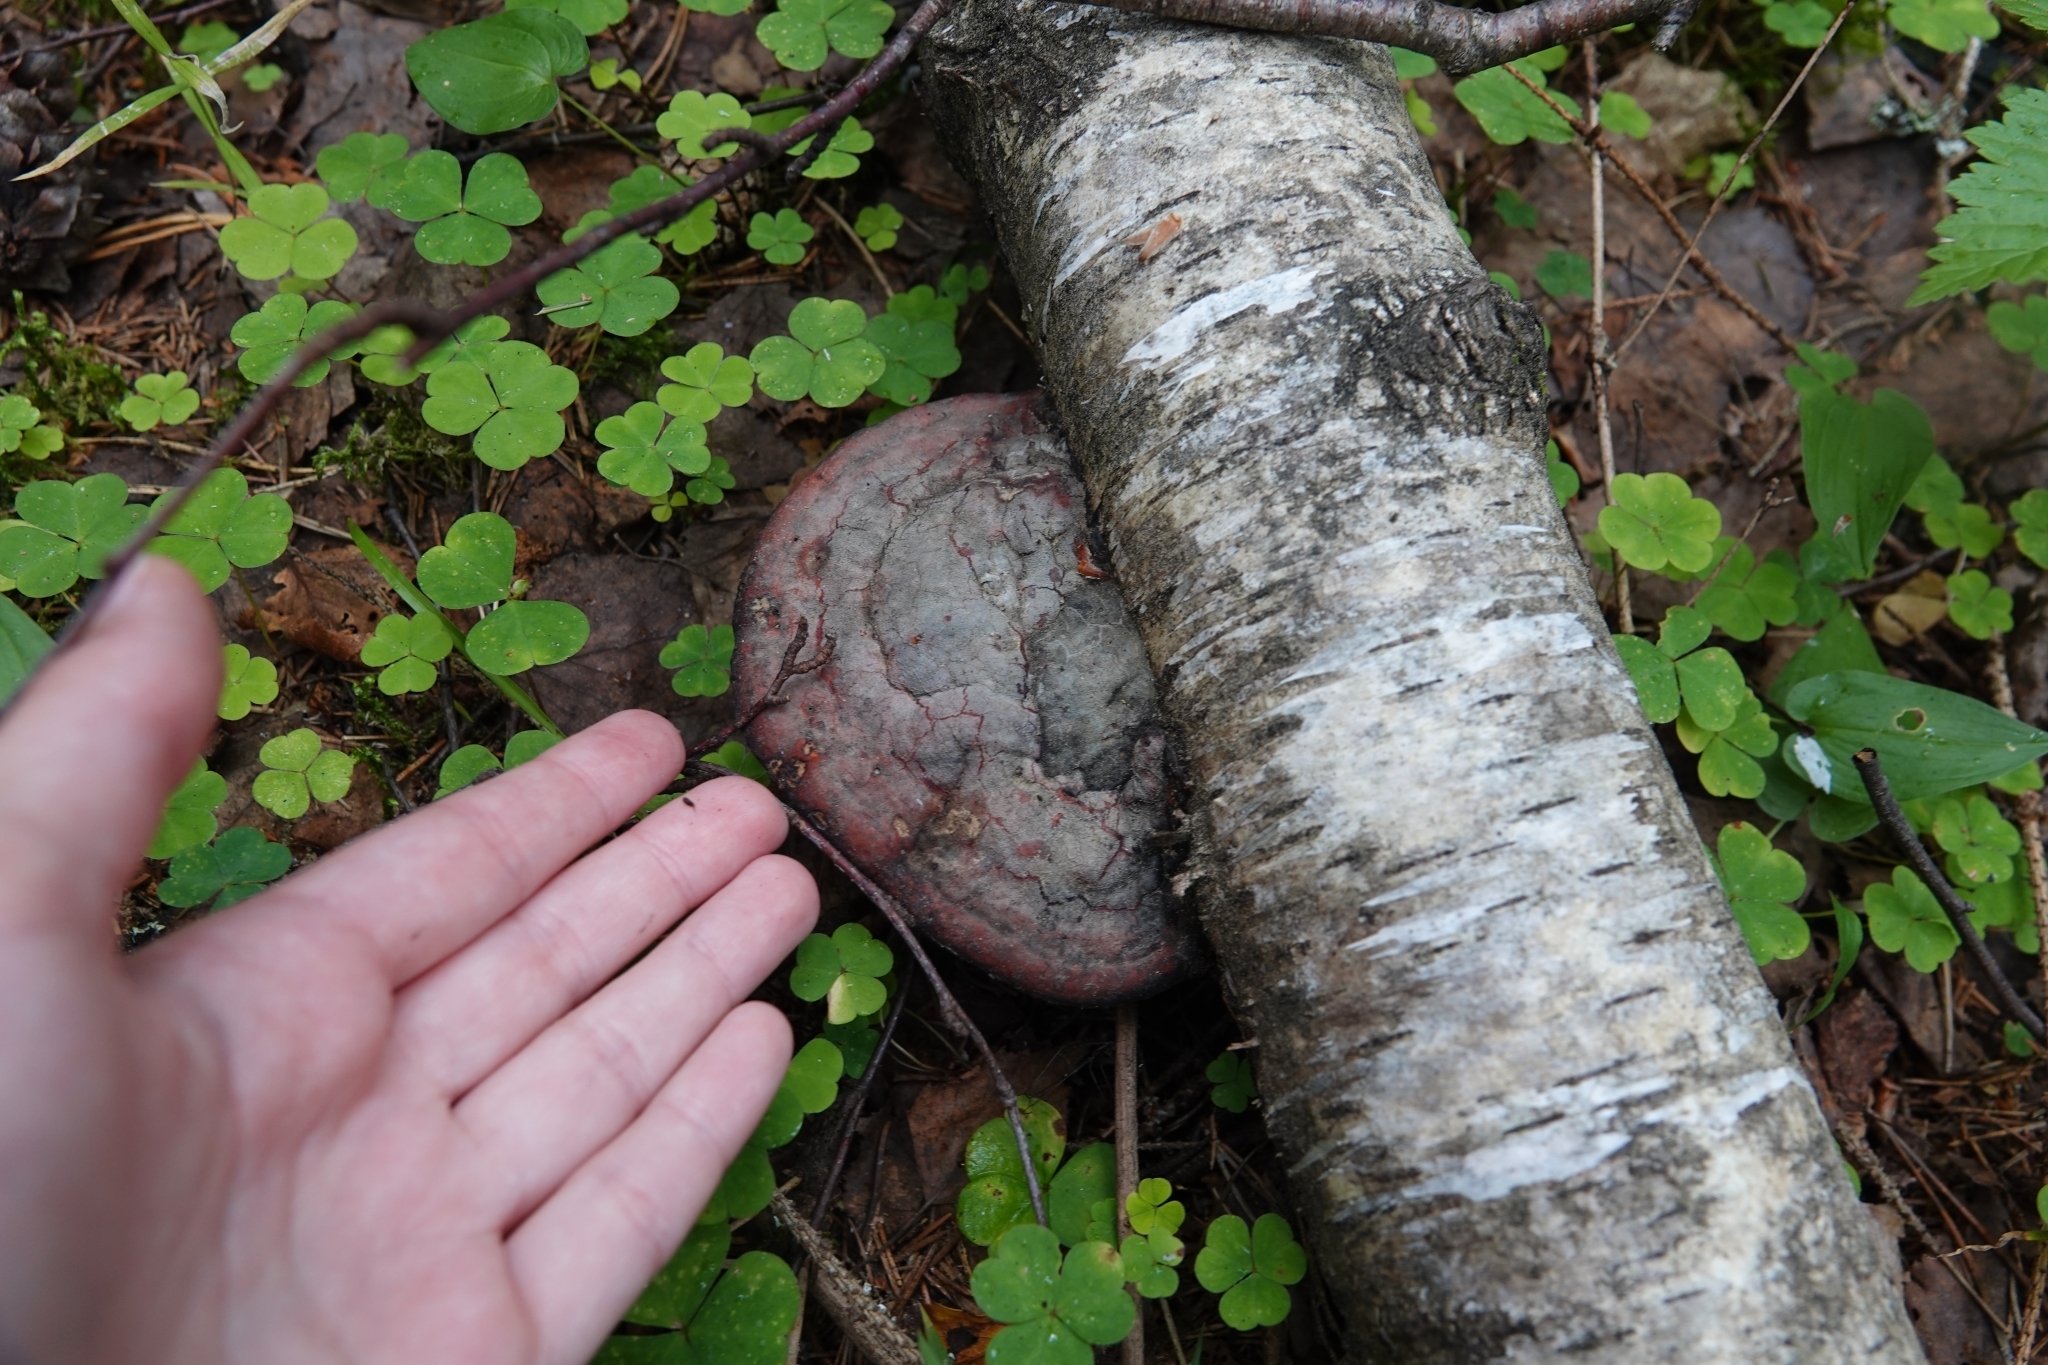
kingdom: Fungi
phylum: Basidiomycota
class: Agaricomycetes
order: Polyporales
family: Fomitopsidaceae
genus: Fomitopsis
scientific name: Fomitopsis pinicola
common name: Red-belted bracket
